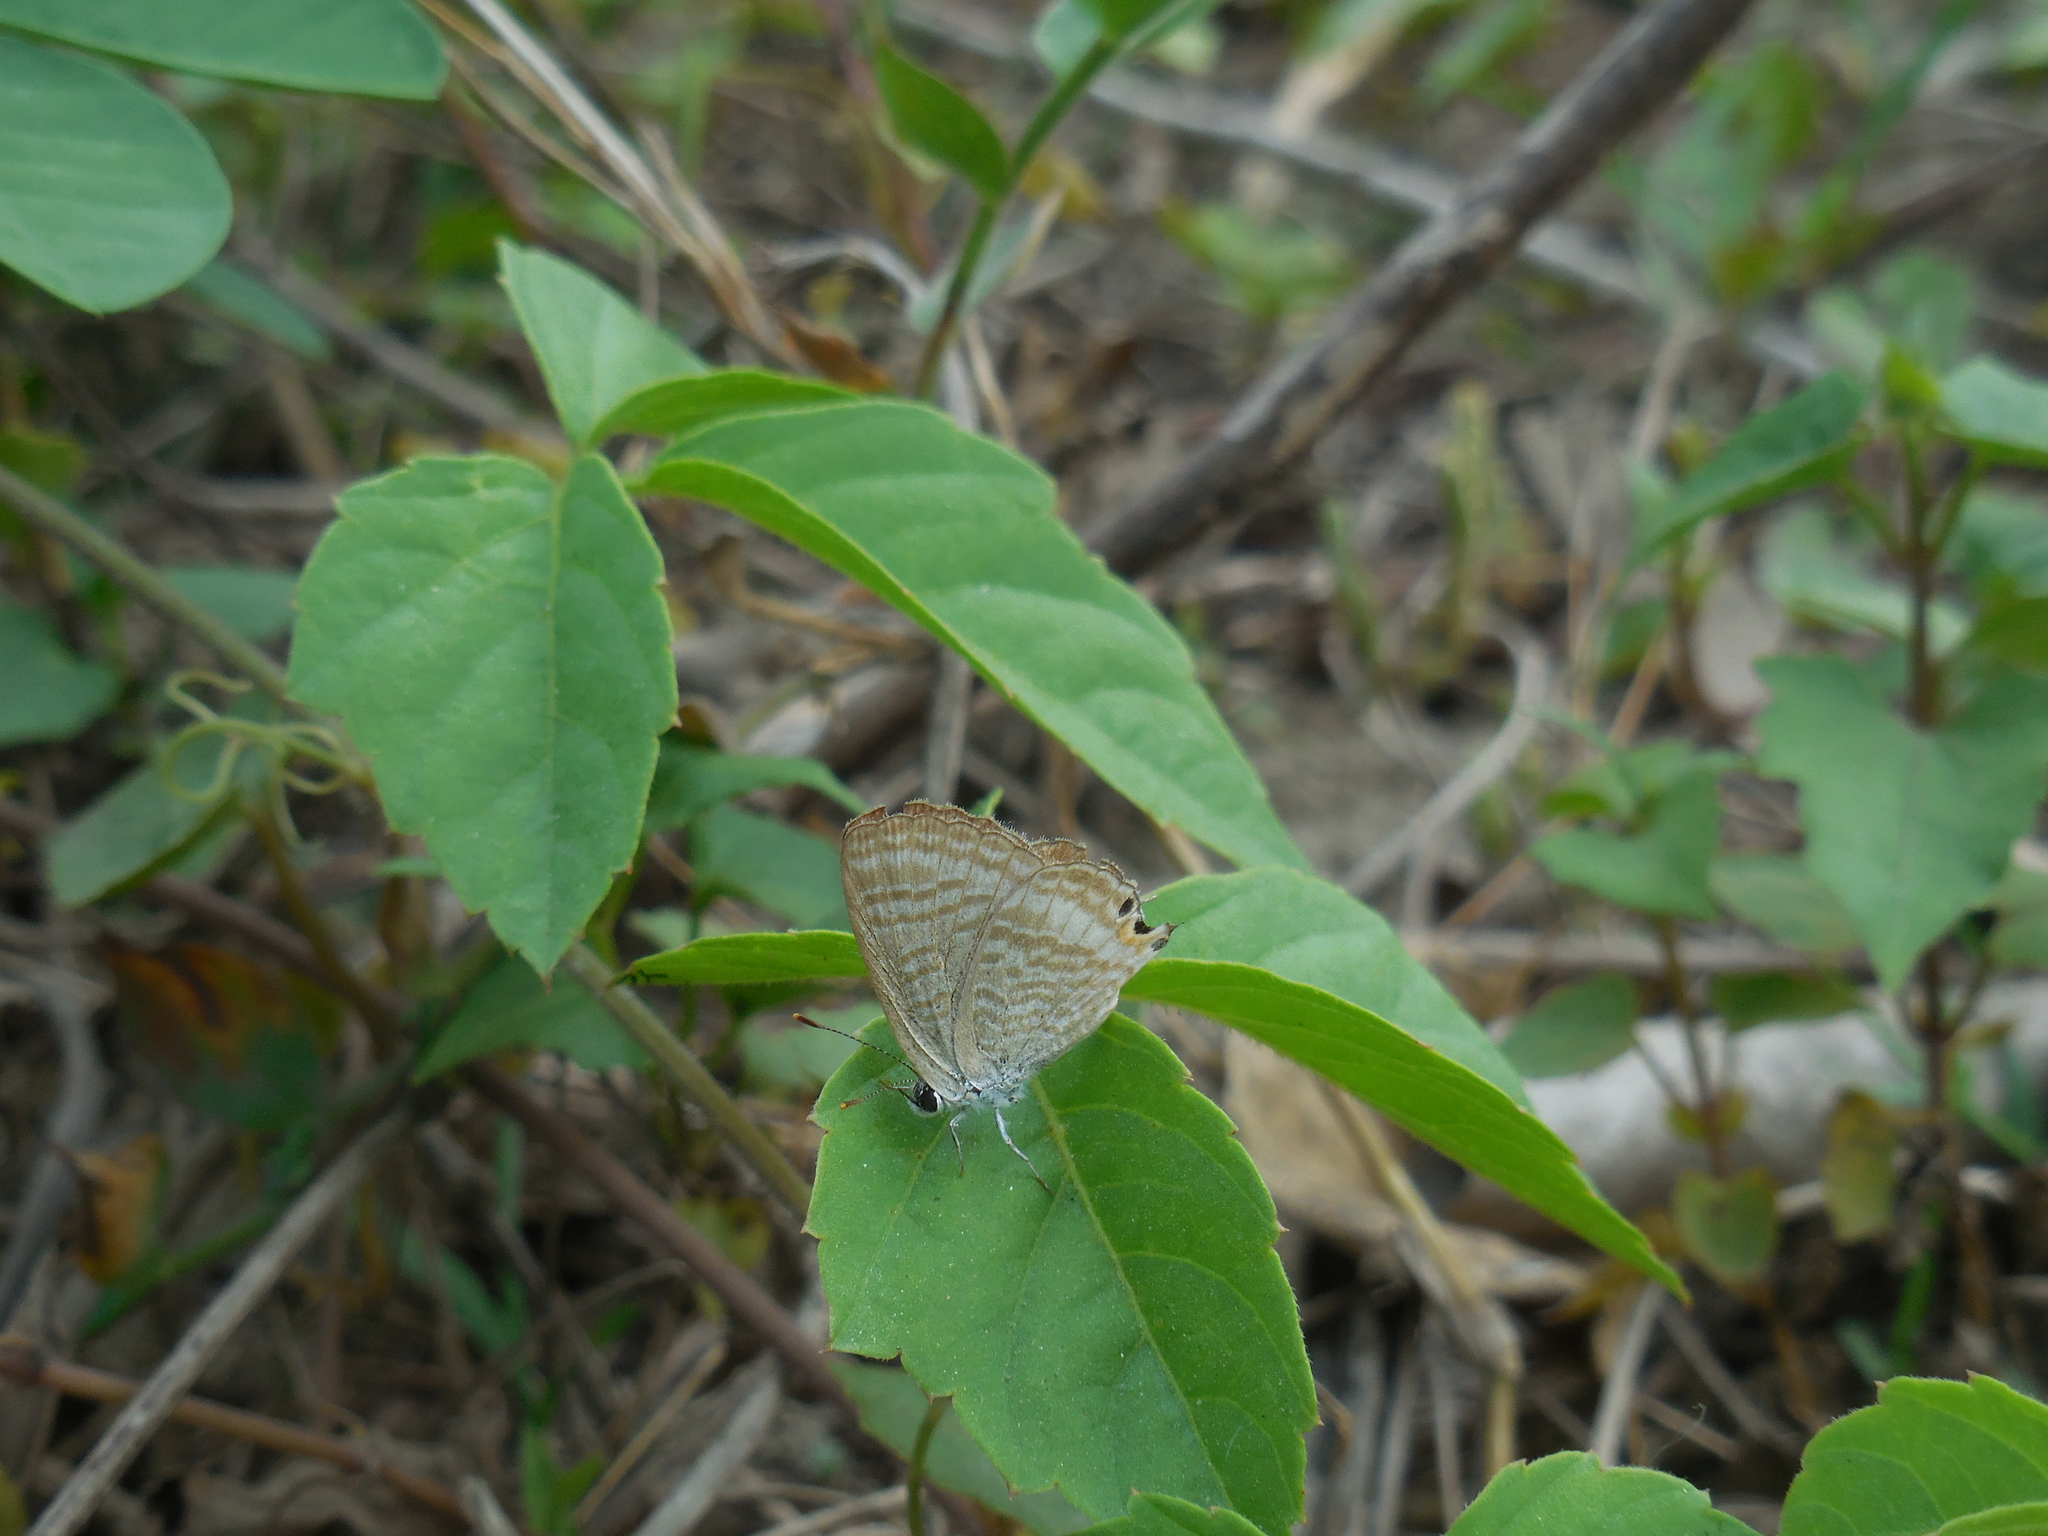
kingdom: Animalia
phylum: Arthropoda
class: Insecta
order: Lepidoptera
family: Lycaenidae
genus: Lampides
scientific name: Lampides boeticus
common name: Long-tailed blue
